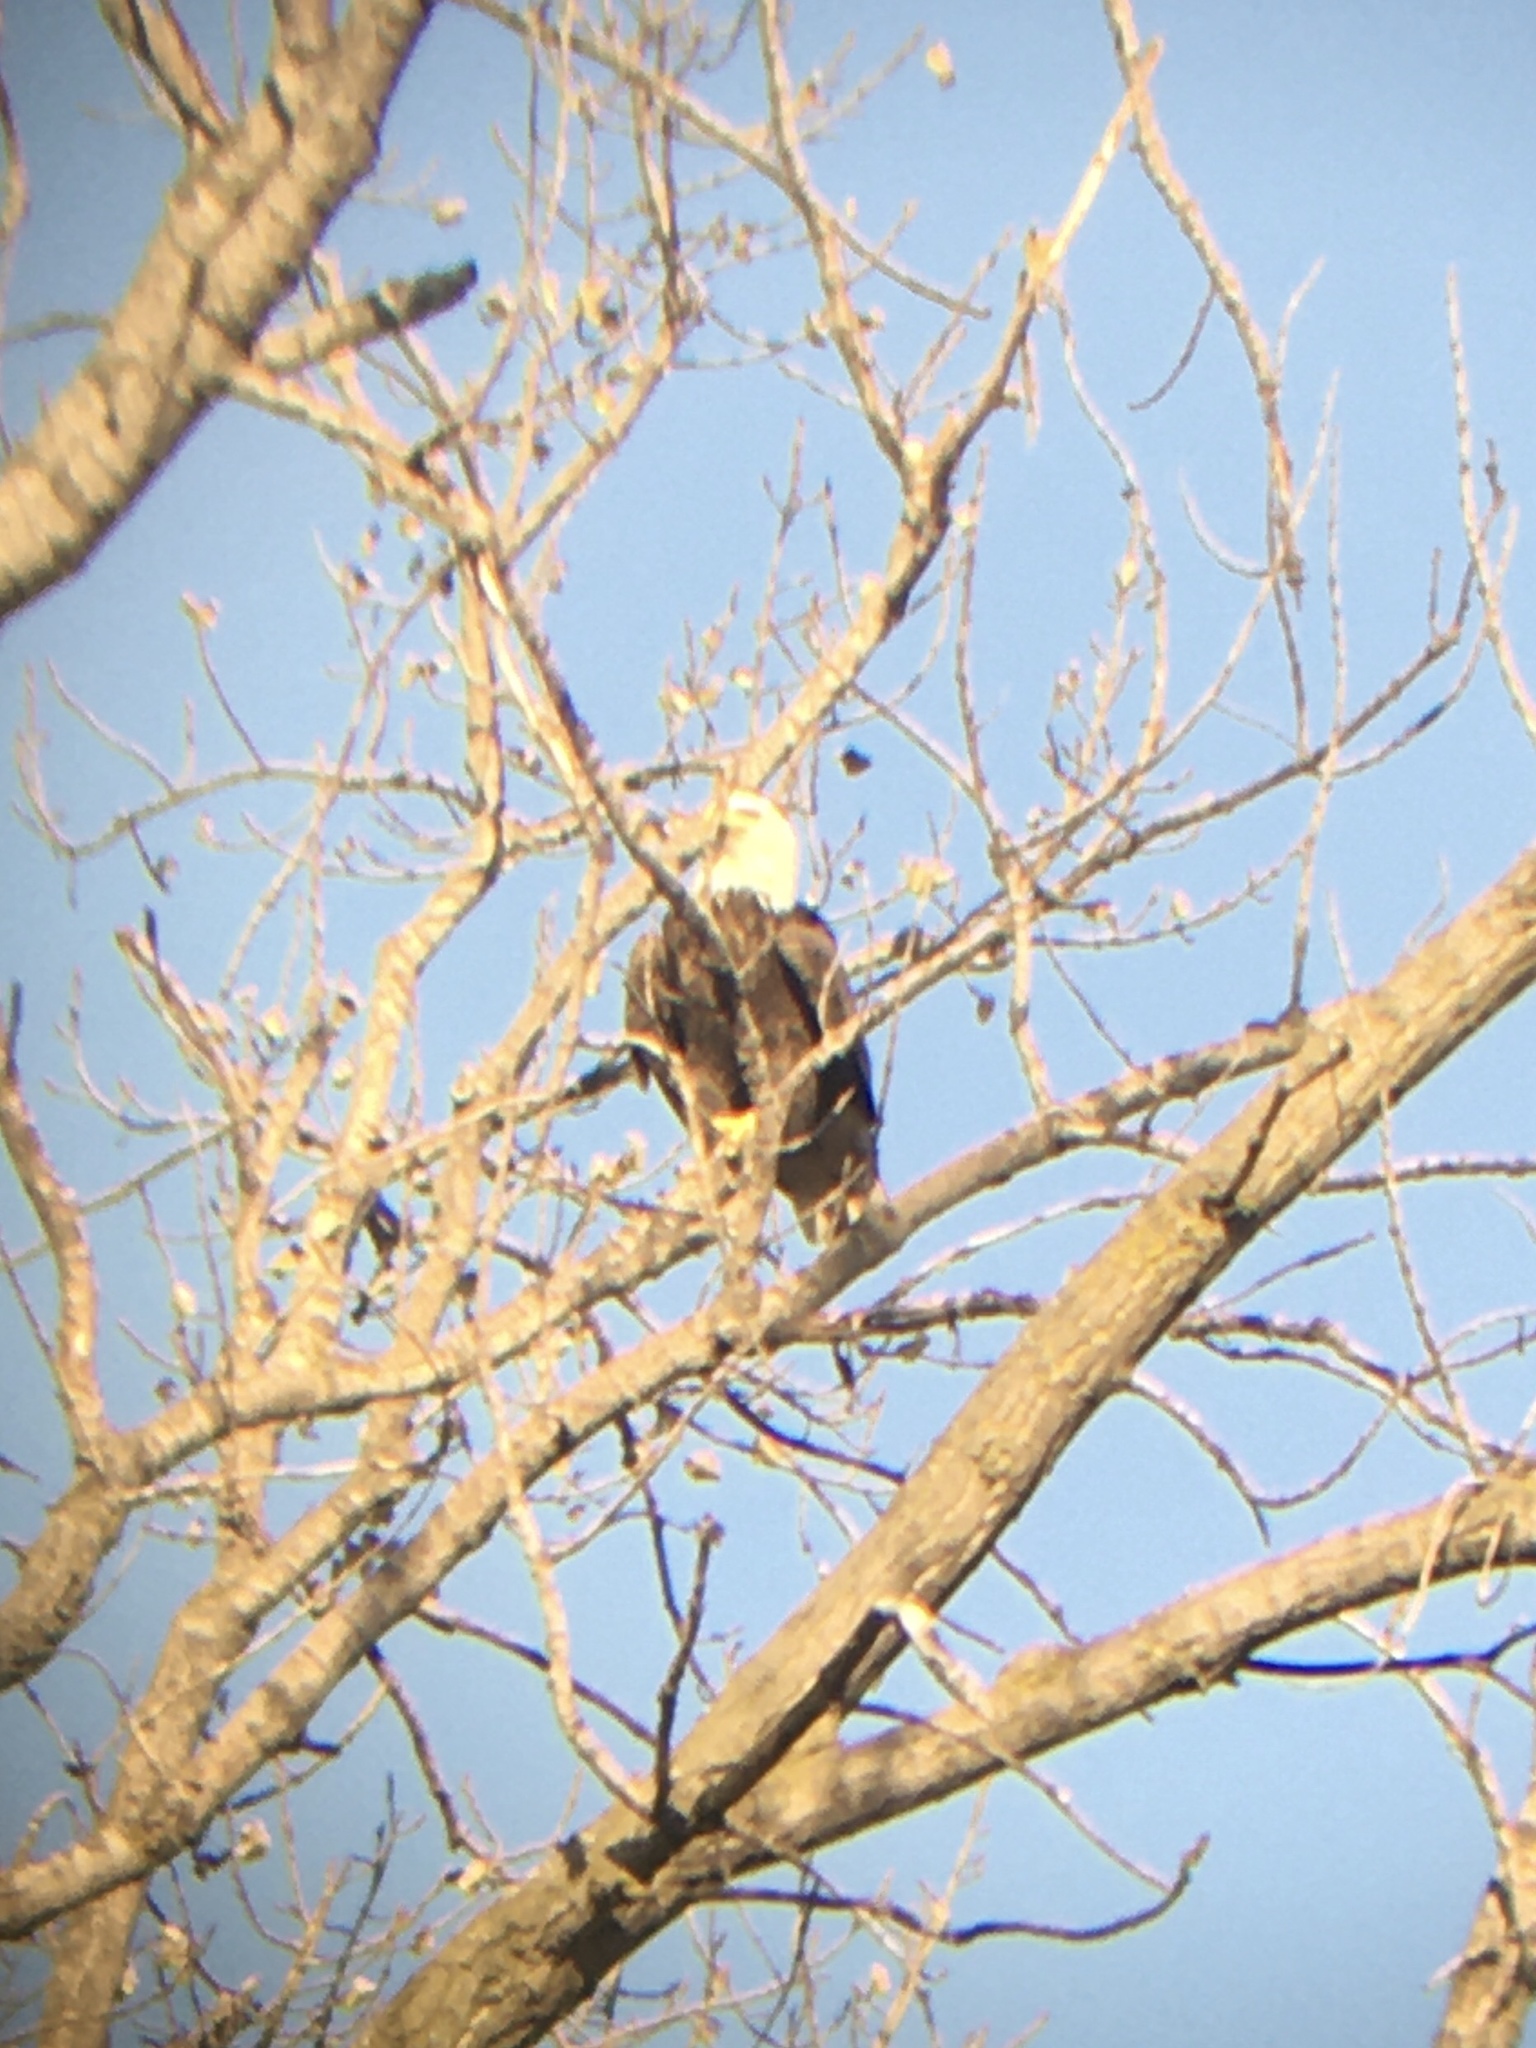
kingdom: Animalia
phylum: Chordata
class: Aves
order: Accipitriformes
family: Accipitridae
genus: Haliaeetus
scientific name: Haliaeetus leucocephalus
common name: Bald eagle
